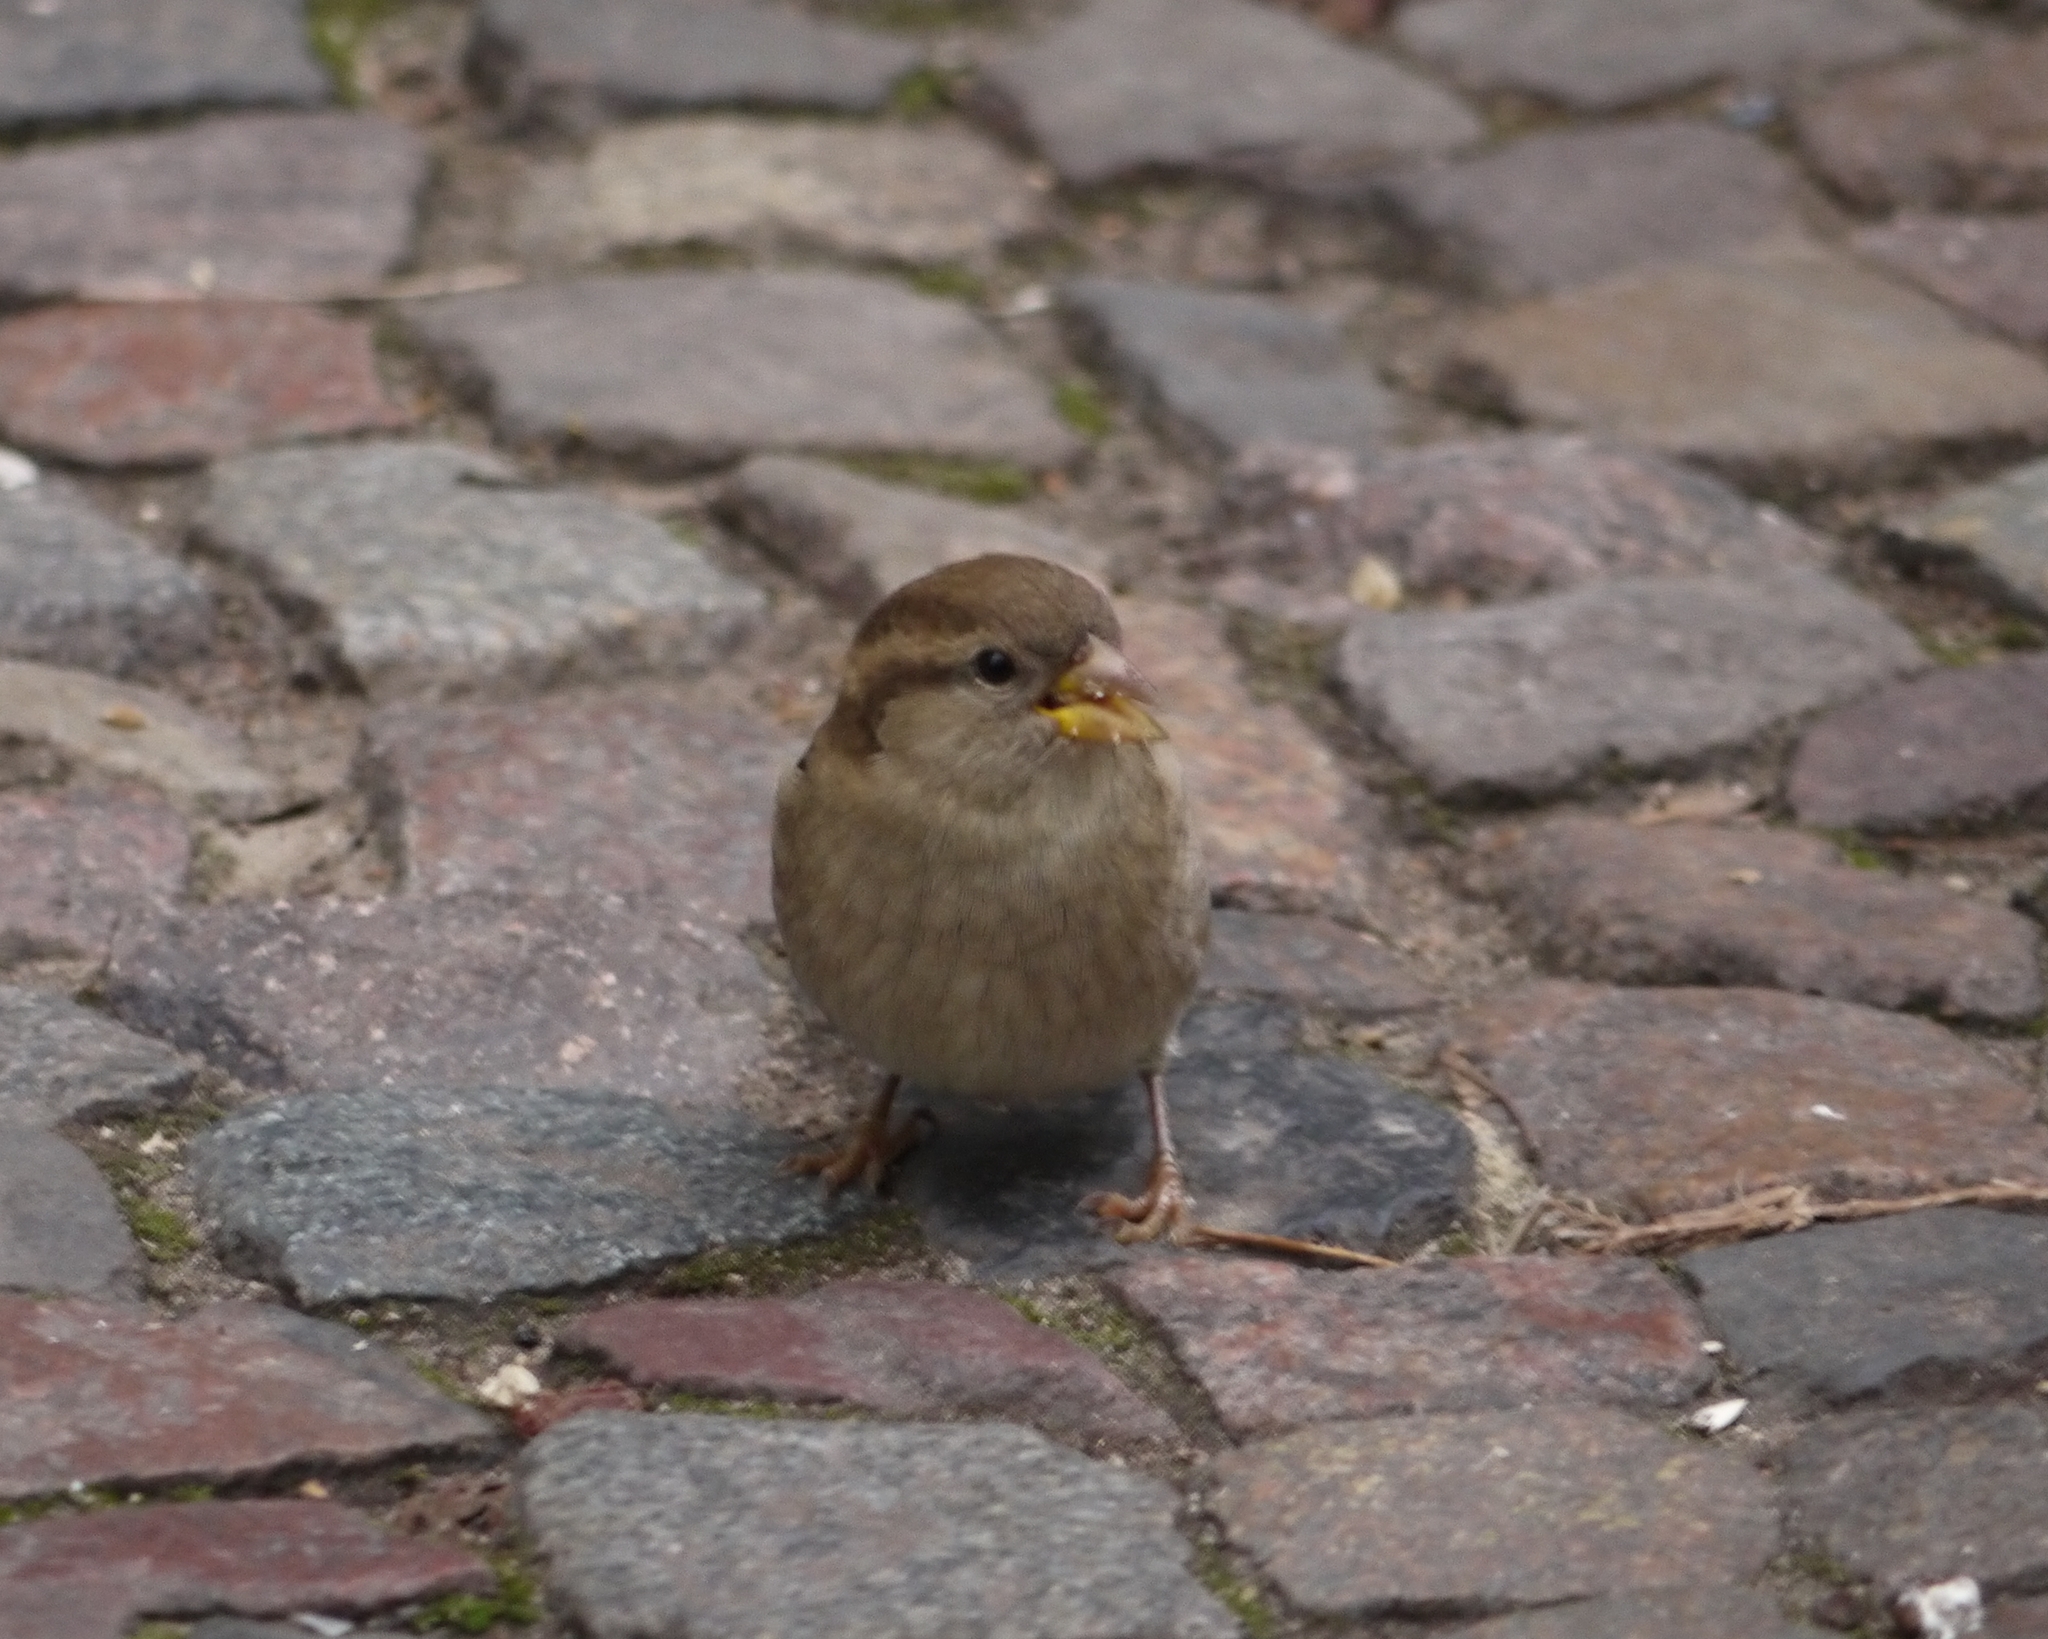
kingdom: Animalia
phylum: Chordata
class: Aves
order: Passeriformes
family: Passeridae
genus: Passer
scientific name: Passer domesticus
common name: House sparrow
